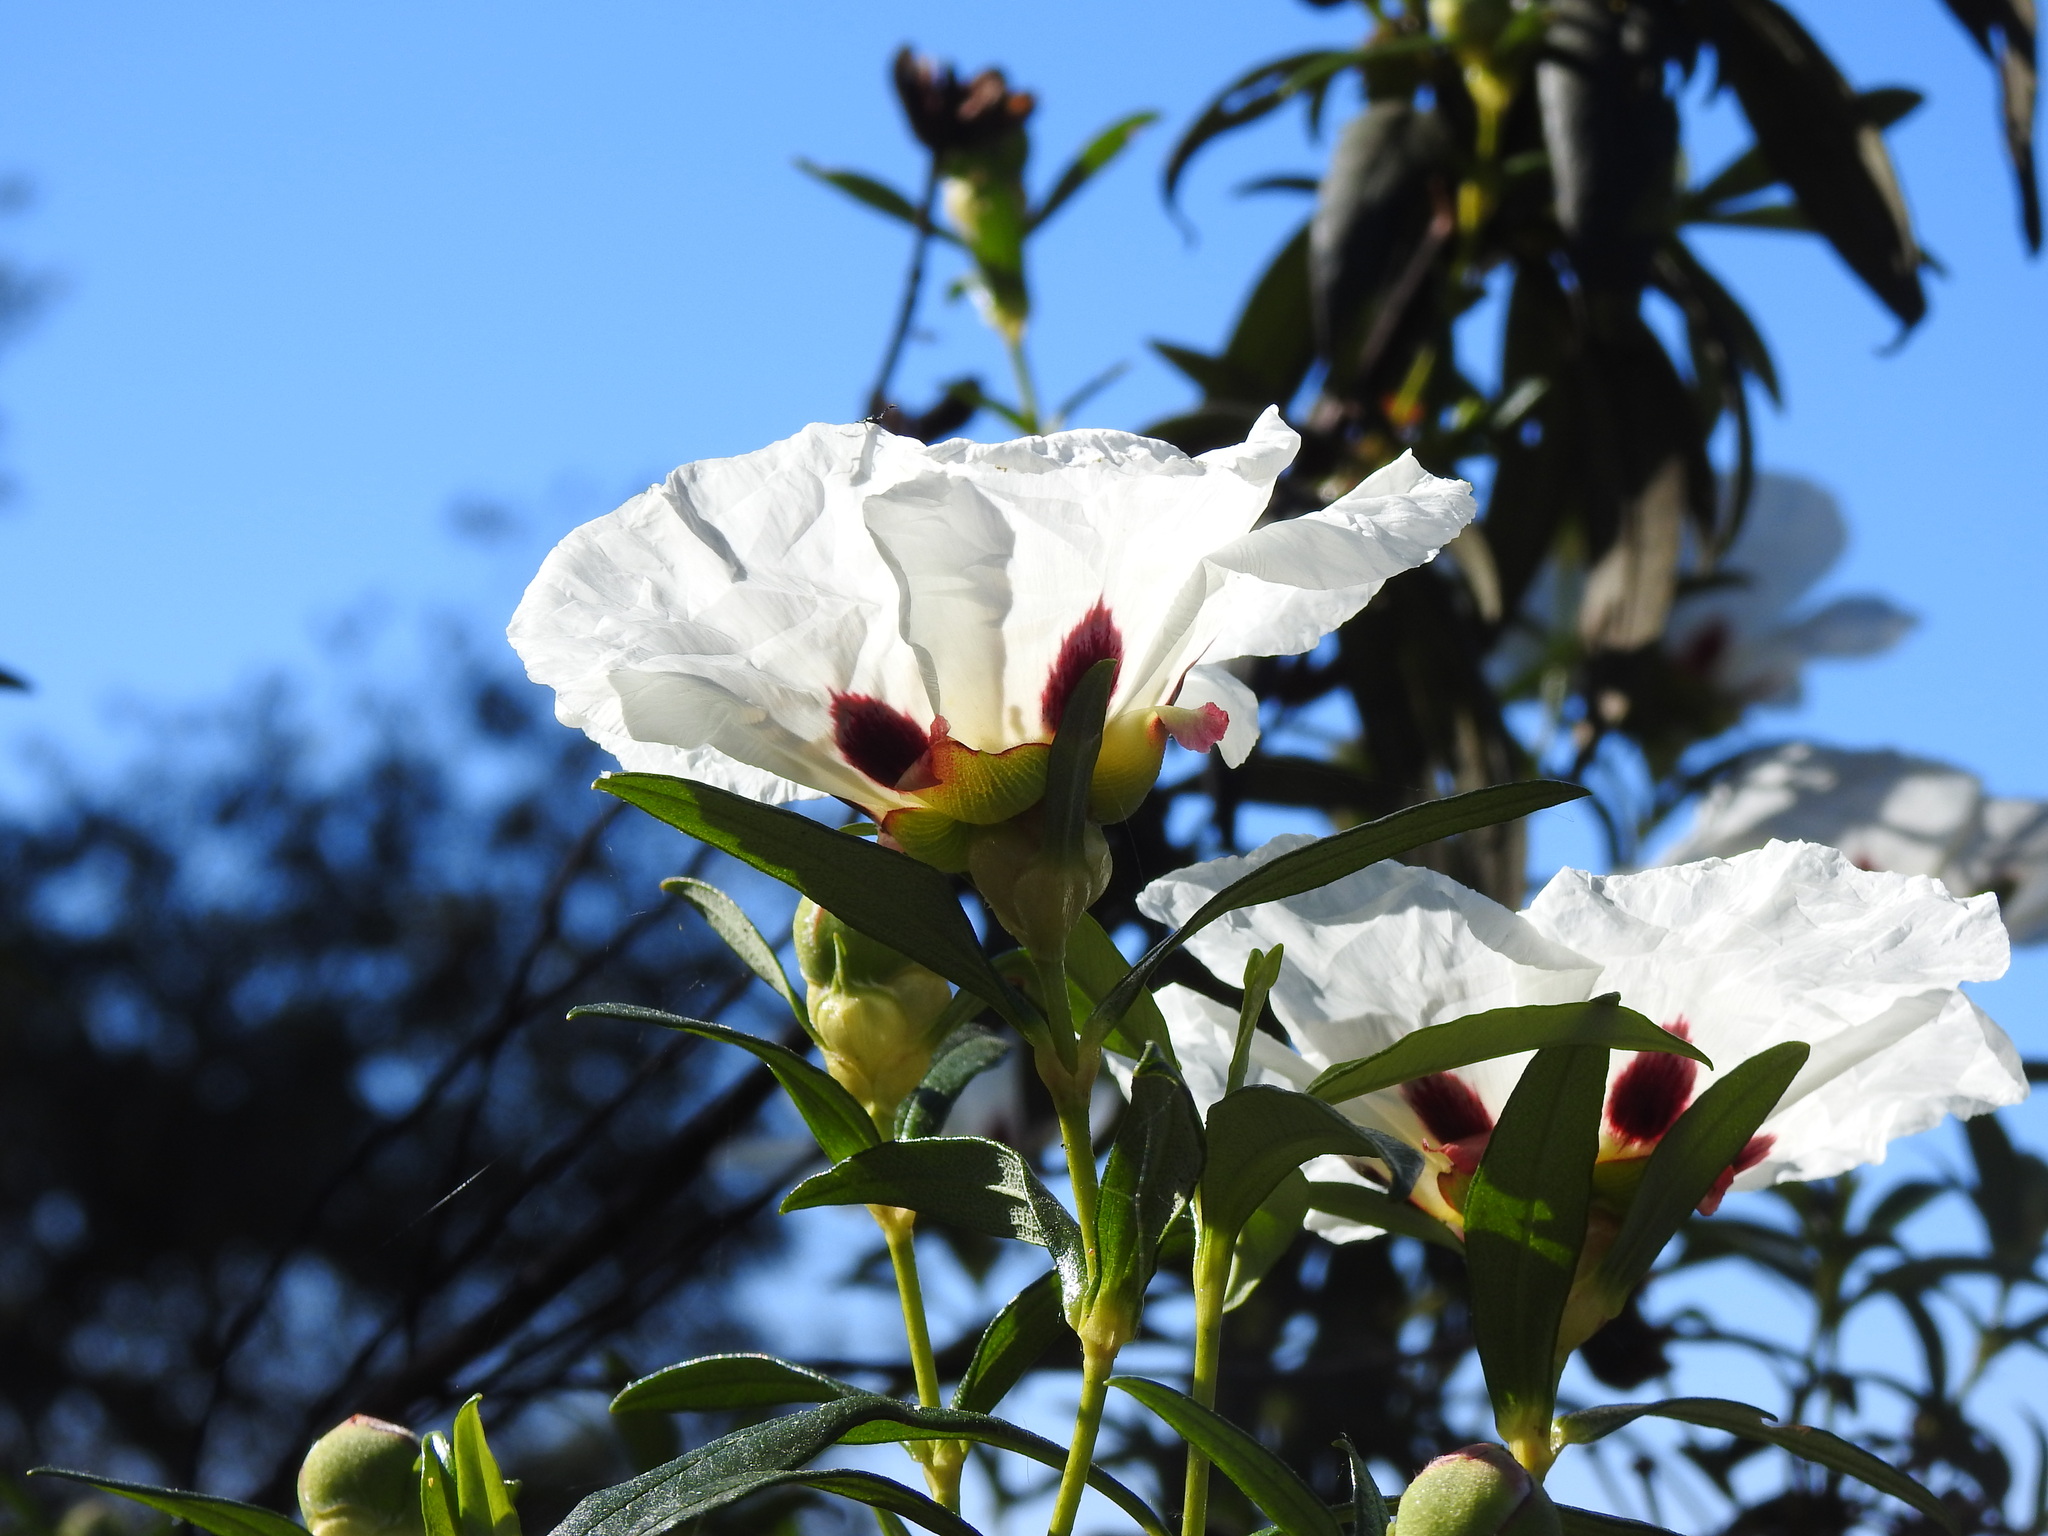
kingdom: Plantae
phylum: Tracheophyta
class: Magnoliopsida
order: Malvales
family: Cistaceae
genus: Cistus
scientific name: Cistus ladanifer
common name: Common gum cistus
